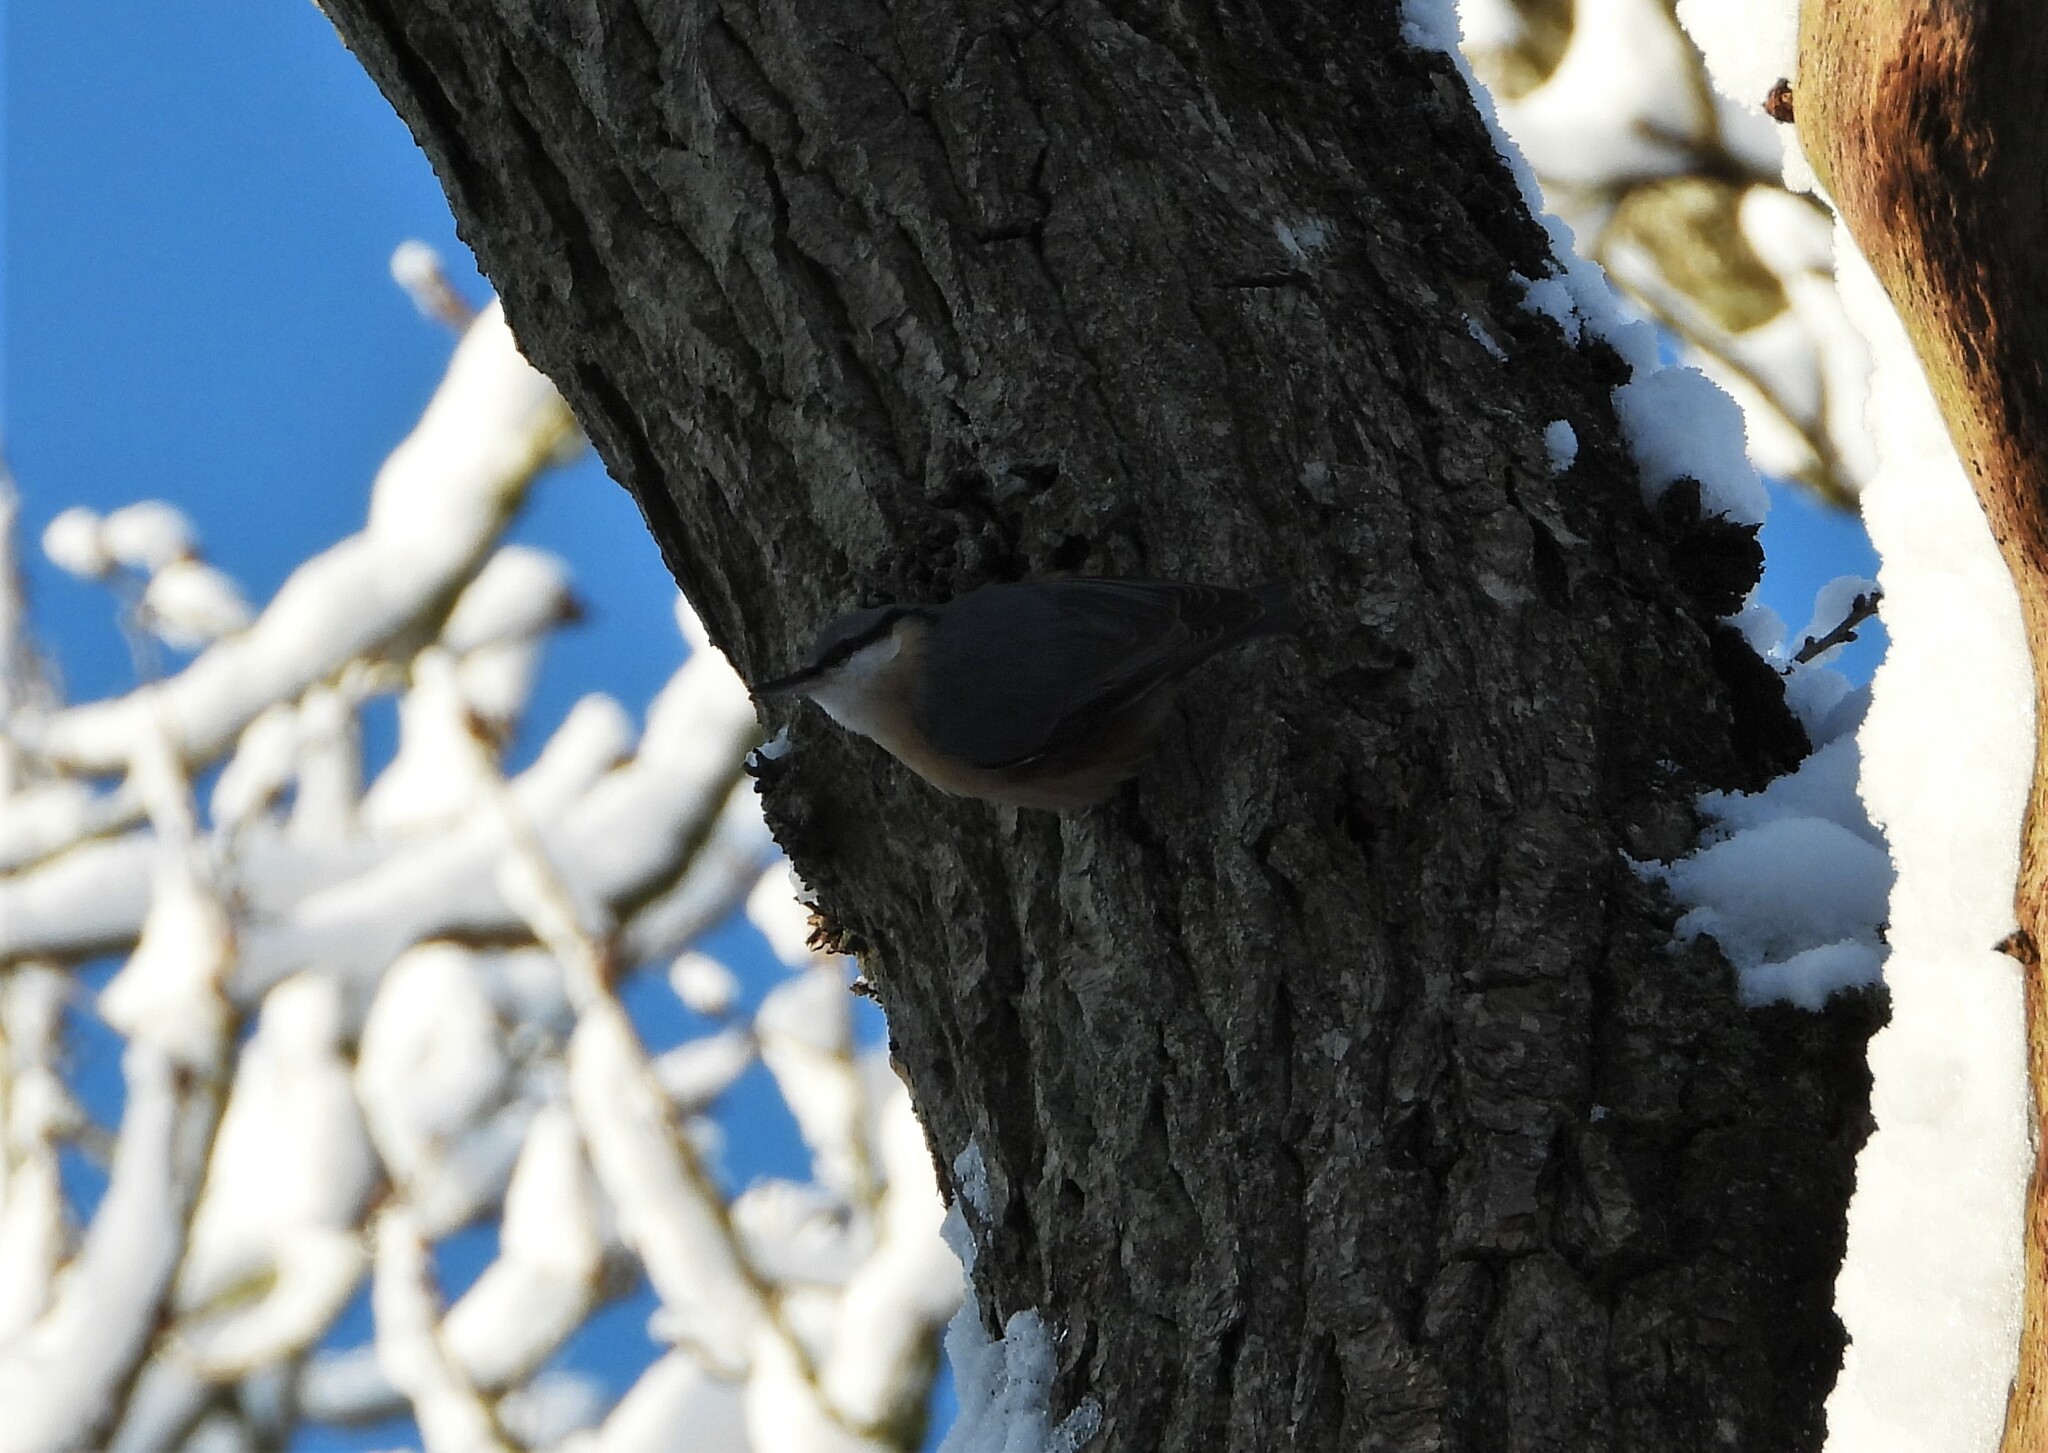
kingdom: Animalia
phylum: Chordata
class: Aves
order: Passeriformes
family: Sittidae
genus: Sitta
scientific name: Sitta europaea
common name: Eurasian nuthatch
